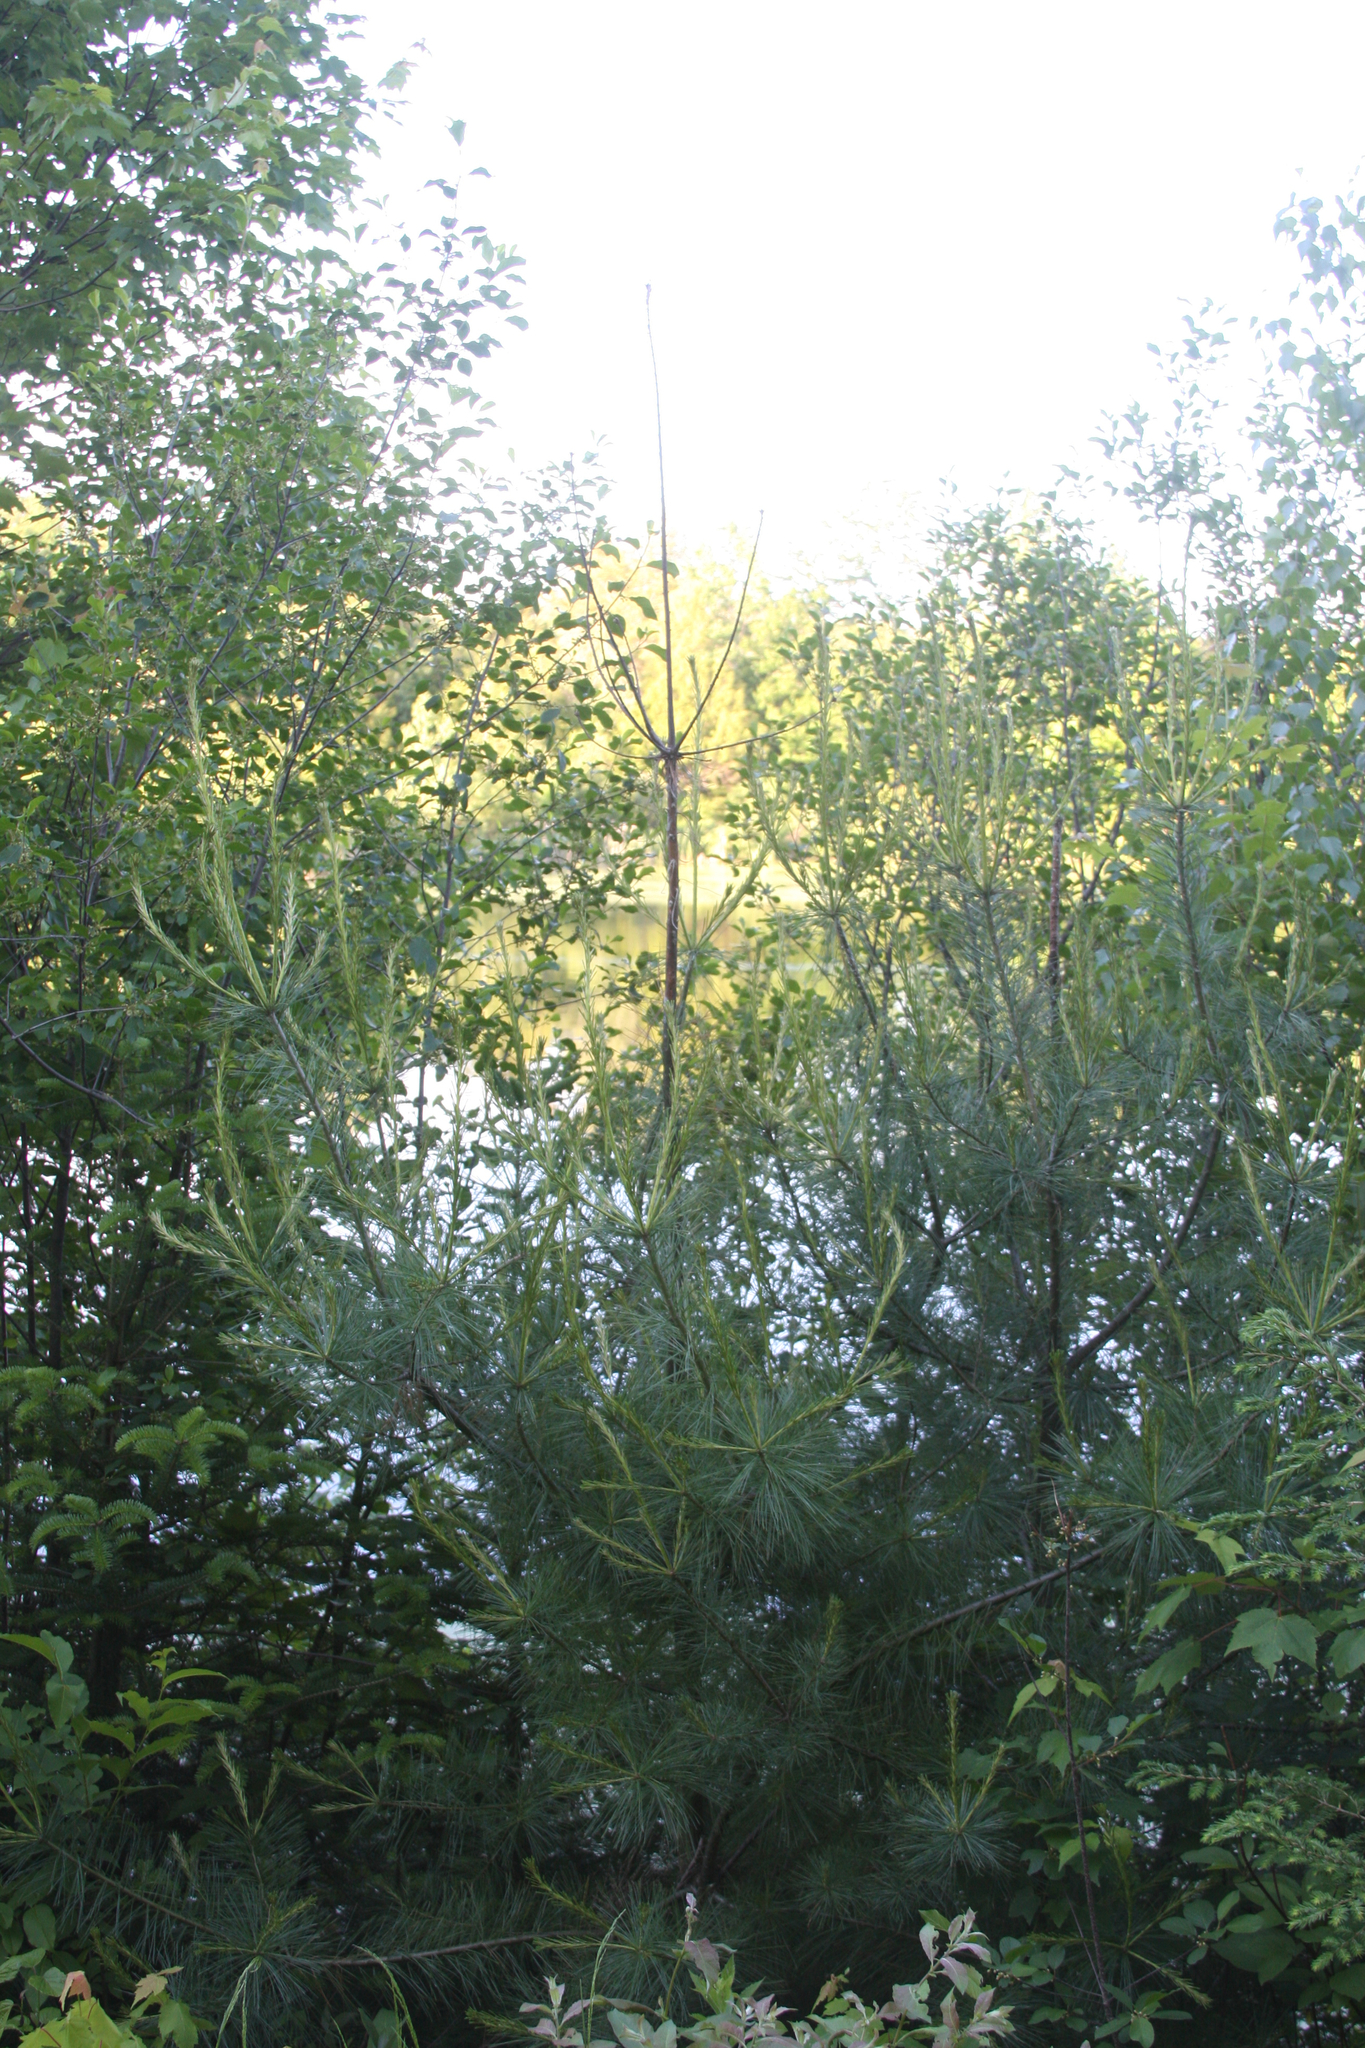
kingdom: Plantae
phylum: Tracheophyta
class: Pinopsida
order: Pinales
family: Pinaceae
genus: Pinus
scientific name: Pinus strobus
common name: Weymouth pine
